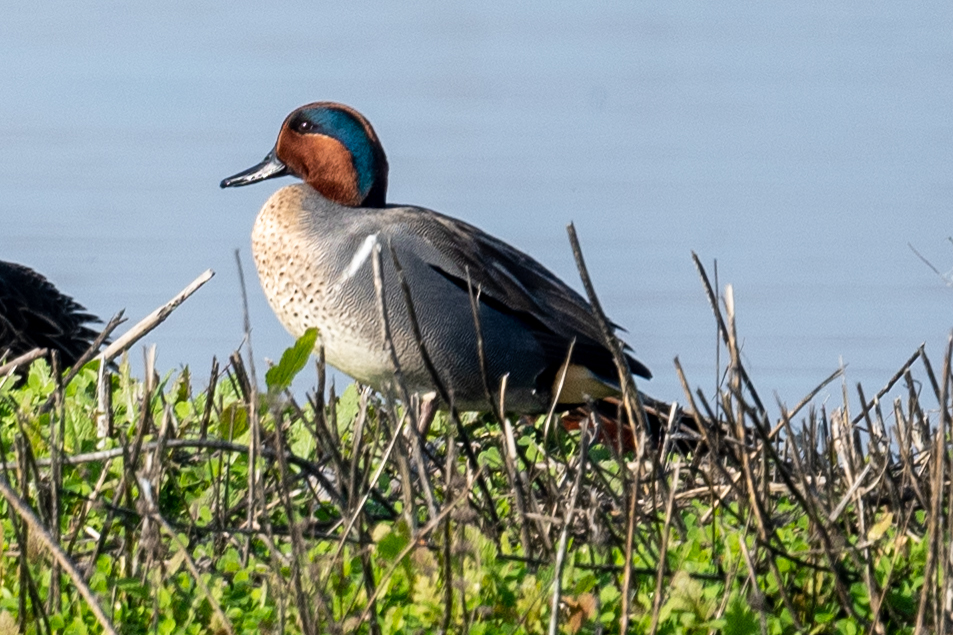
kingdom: Animalia
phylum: Chordata
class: Aves
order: Anseriformes
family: Anatidae
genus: Anas
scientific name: Anas crecca
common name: Eurasian teal
